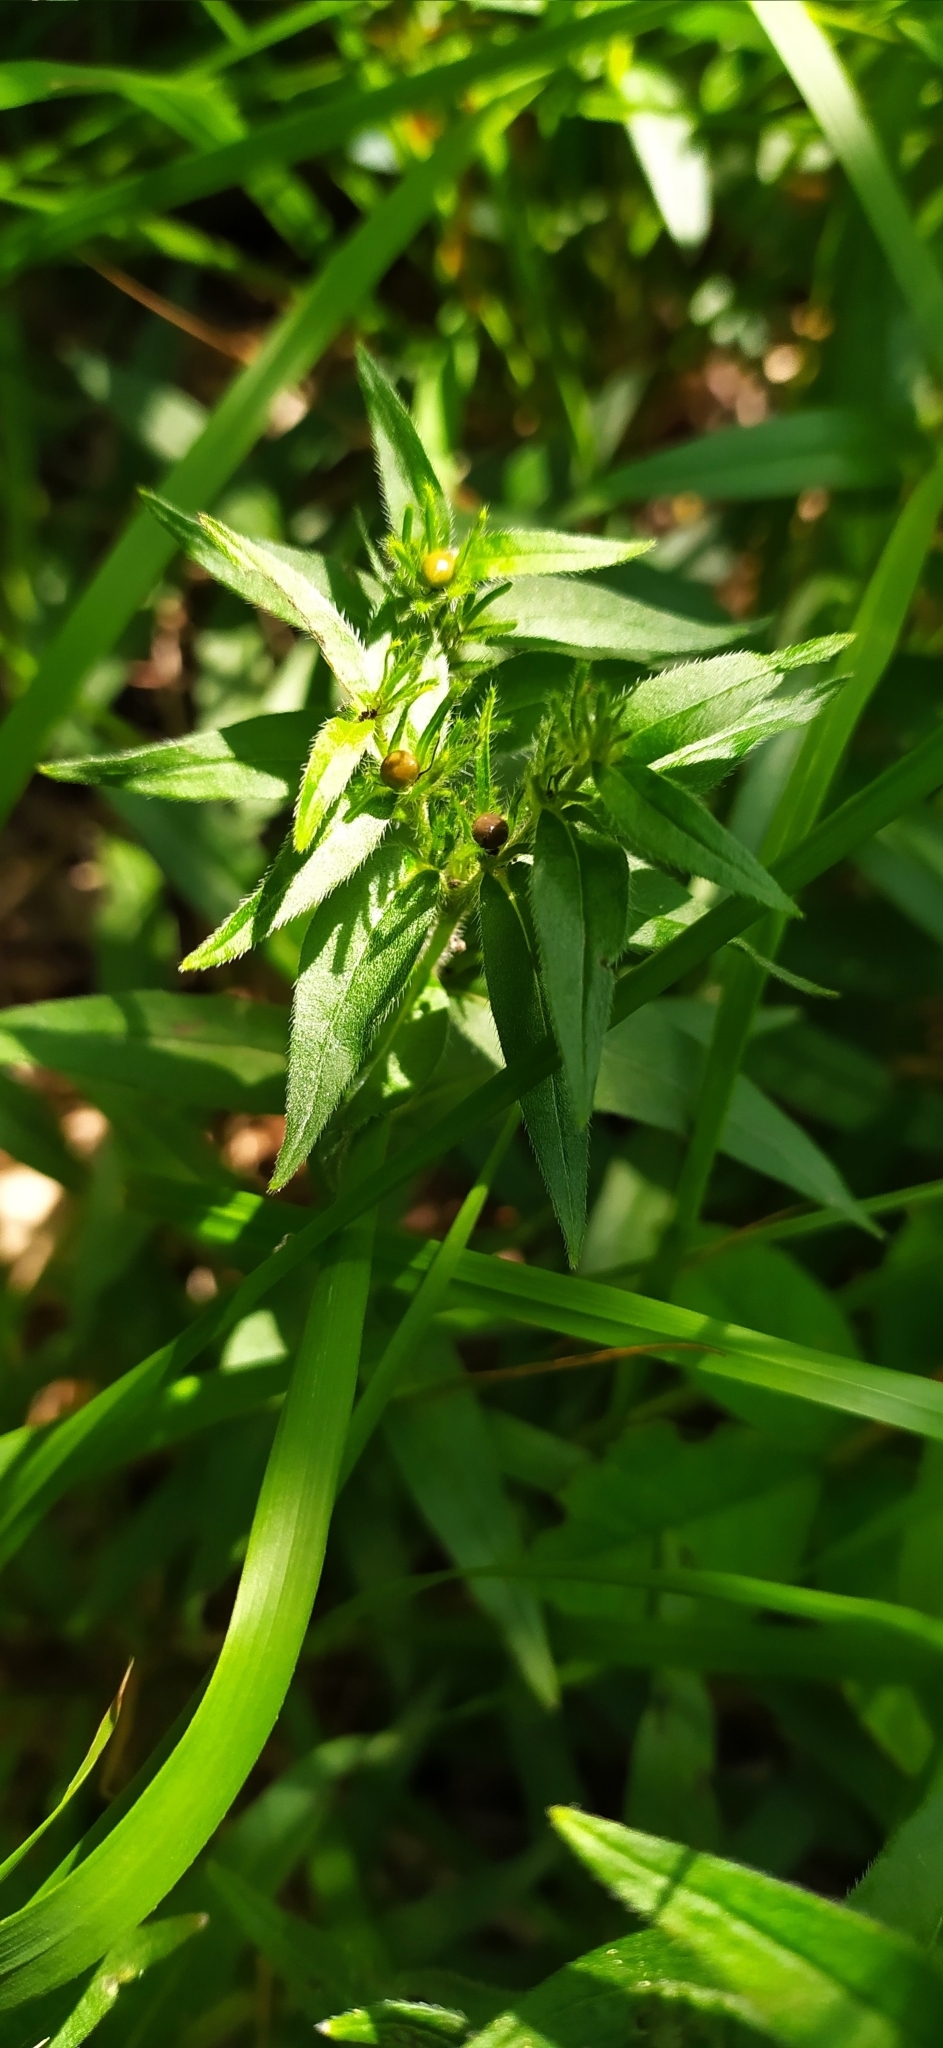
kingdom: Plantae
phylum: Tracheophyta
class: Magnoliopsida
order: Boraginales
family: Boraginaceae
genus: Aegonychon
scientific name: Aegonychon purpurocaeruleum
